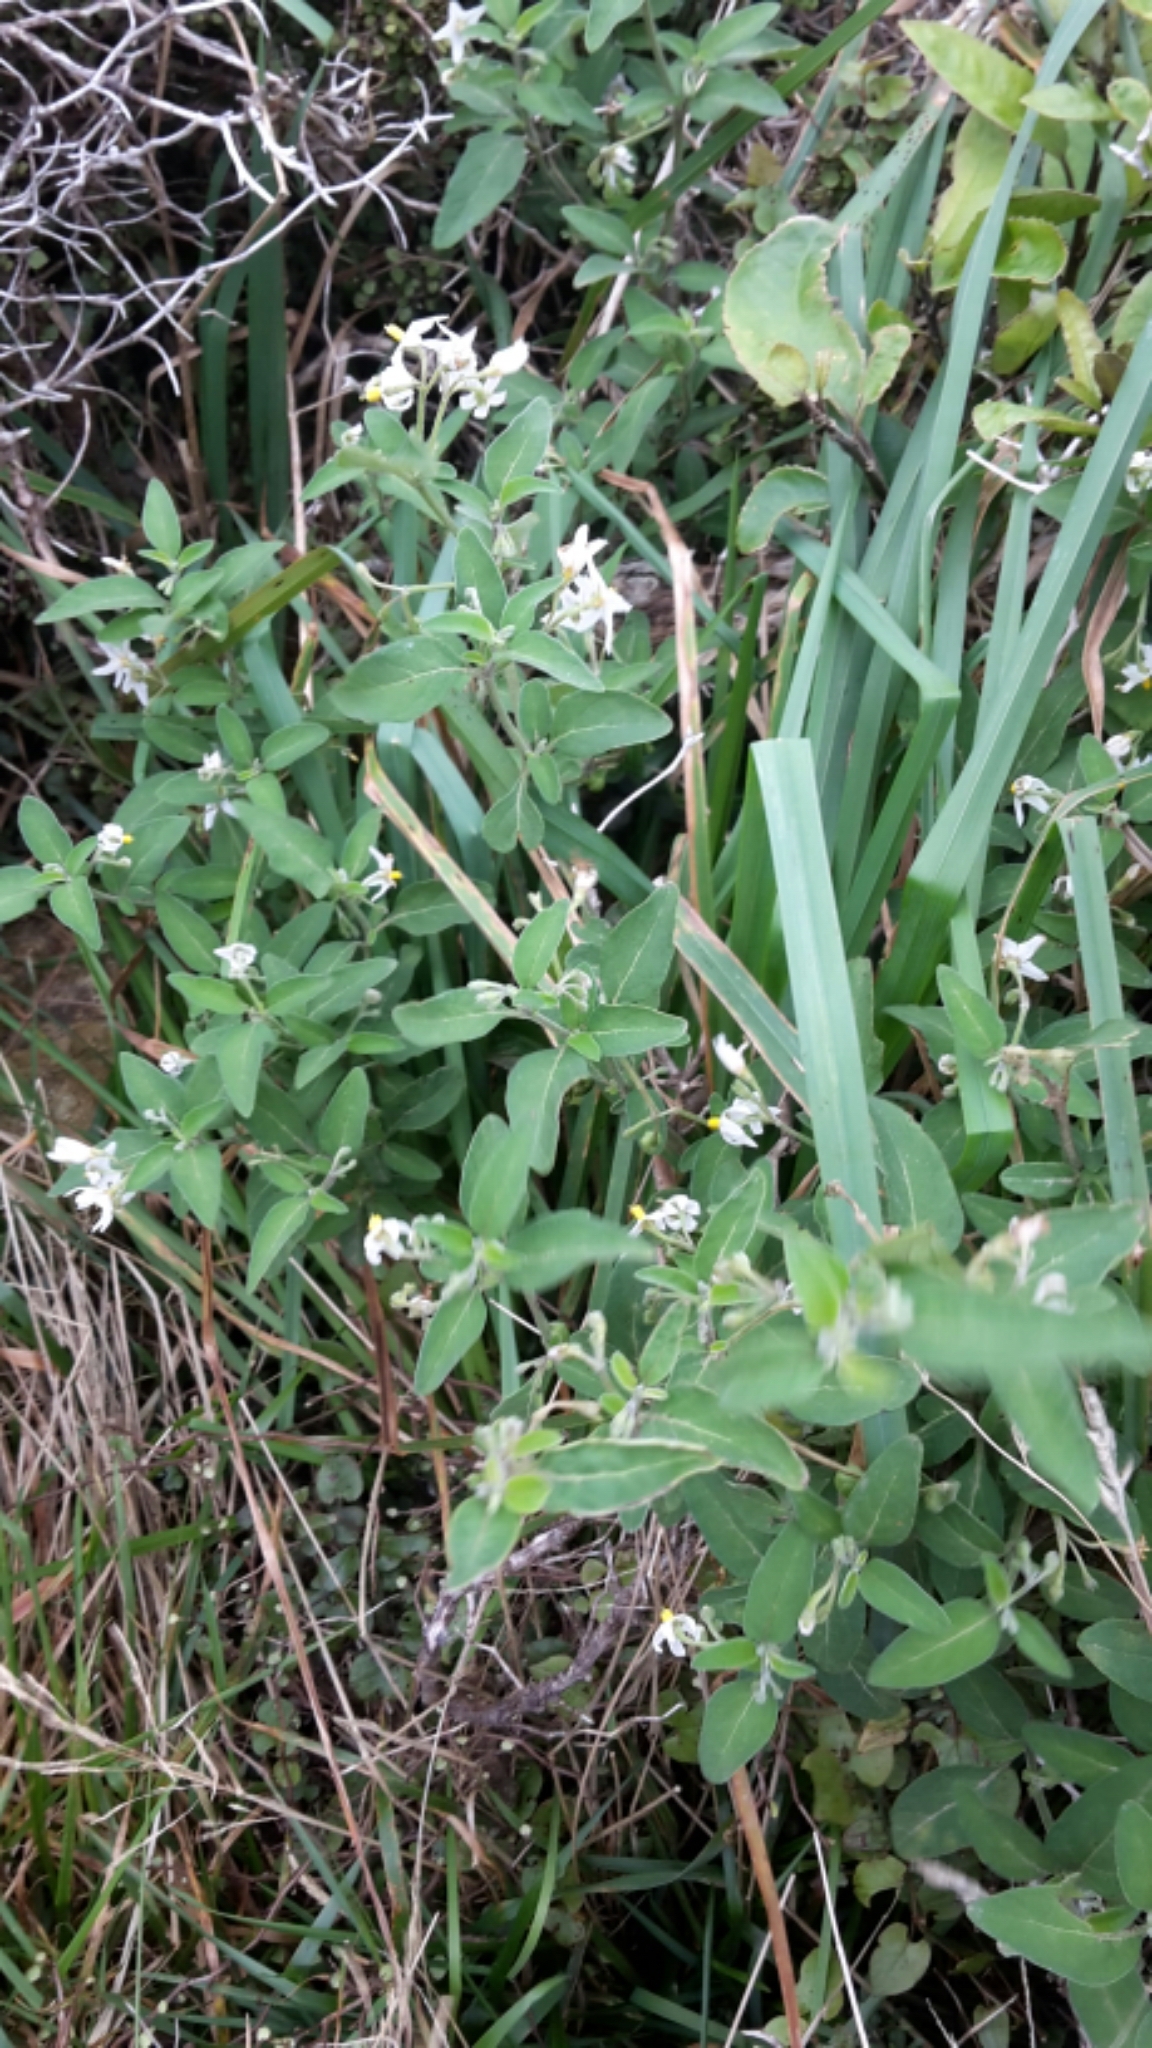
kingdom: Plantae
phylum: Tracheophyta
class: Magnoliopsida
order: Solanales
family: Solanaceae
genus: Solanum
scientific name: Solanum chenopodioides
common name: Tall nightshade
